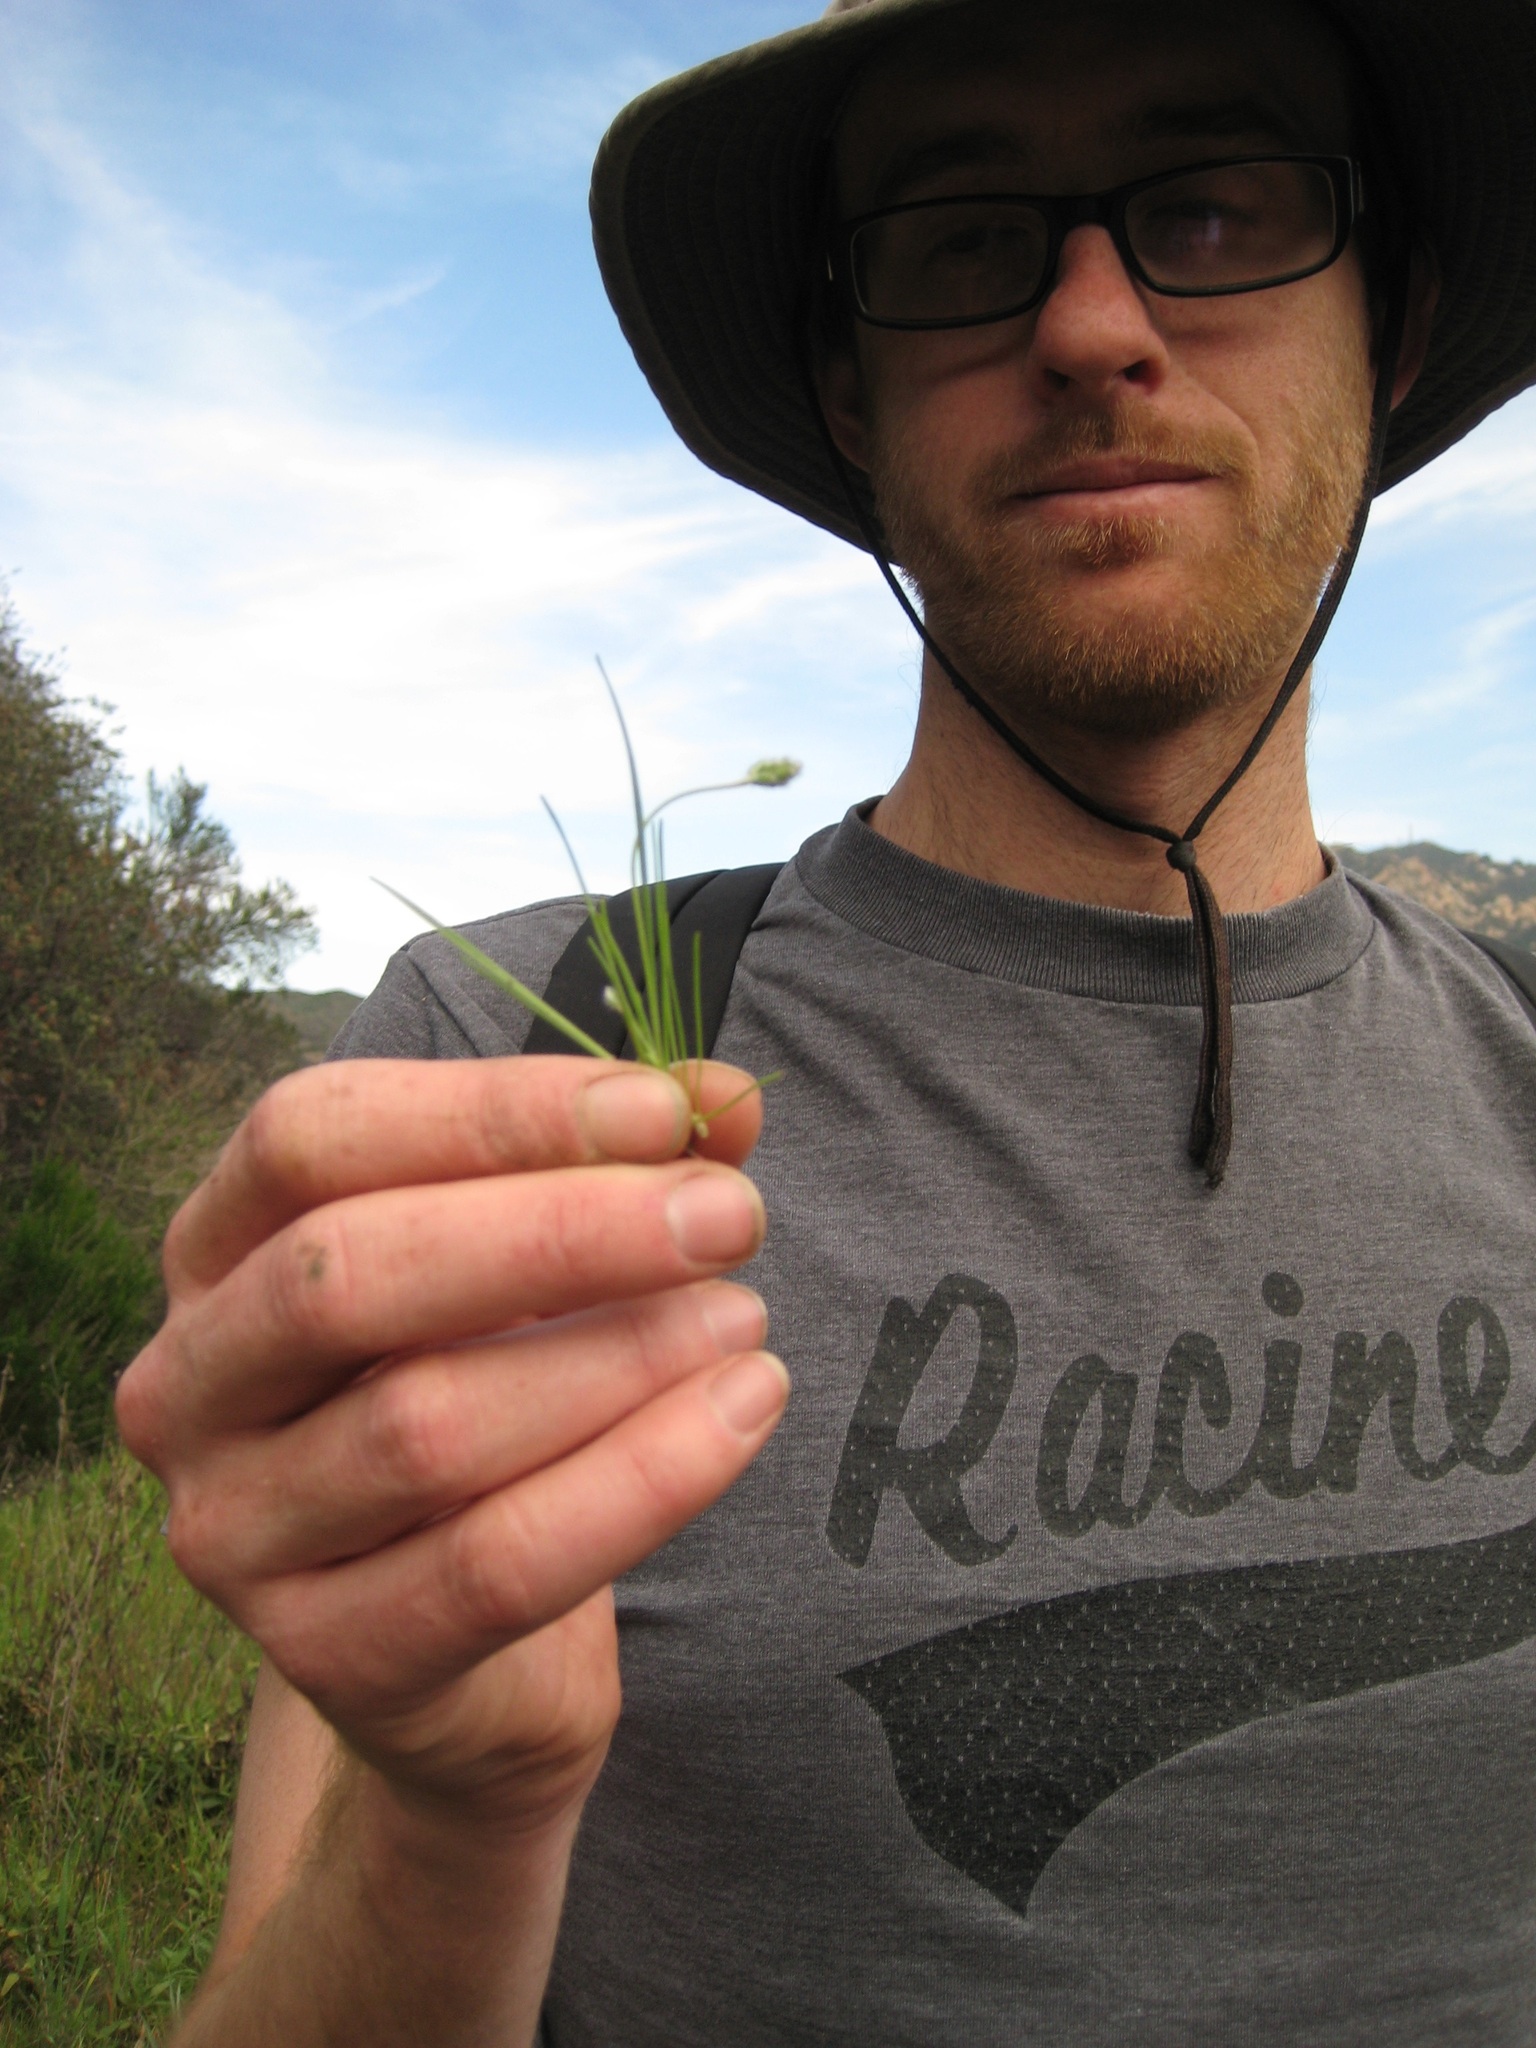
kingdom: Plantae
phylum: Tracheophyta
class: Magnoliopsida
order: Lamiales
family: Plantaginaceae
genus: Plantago
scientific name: Plantago erecta
